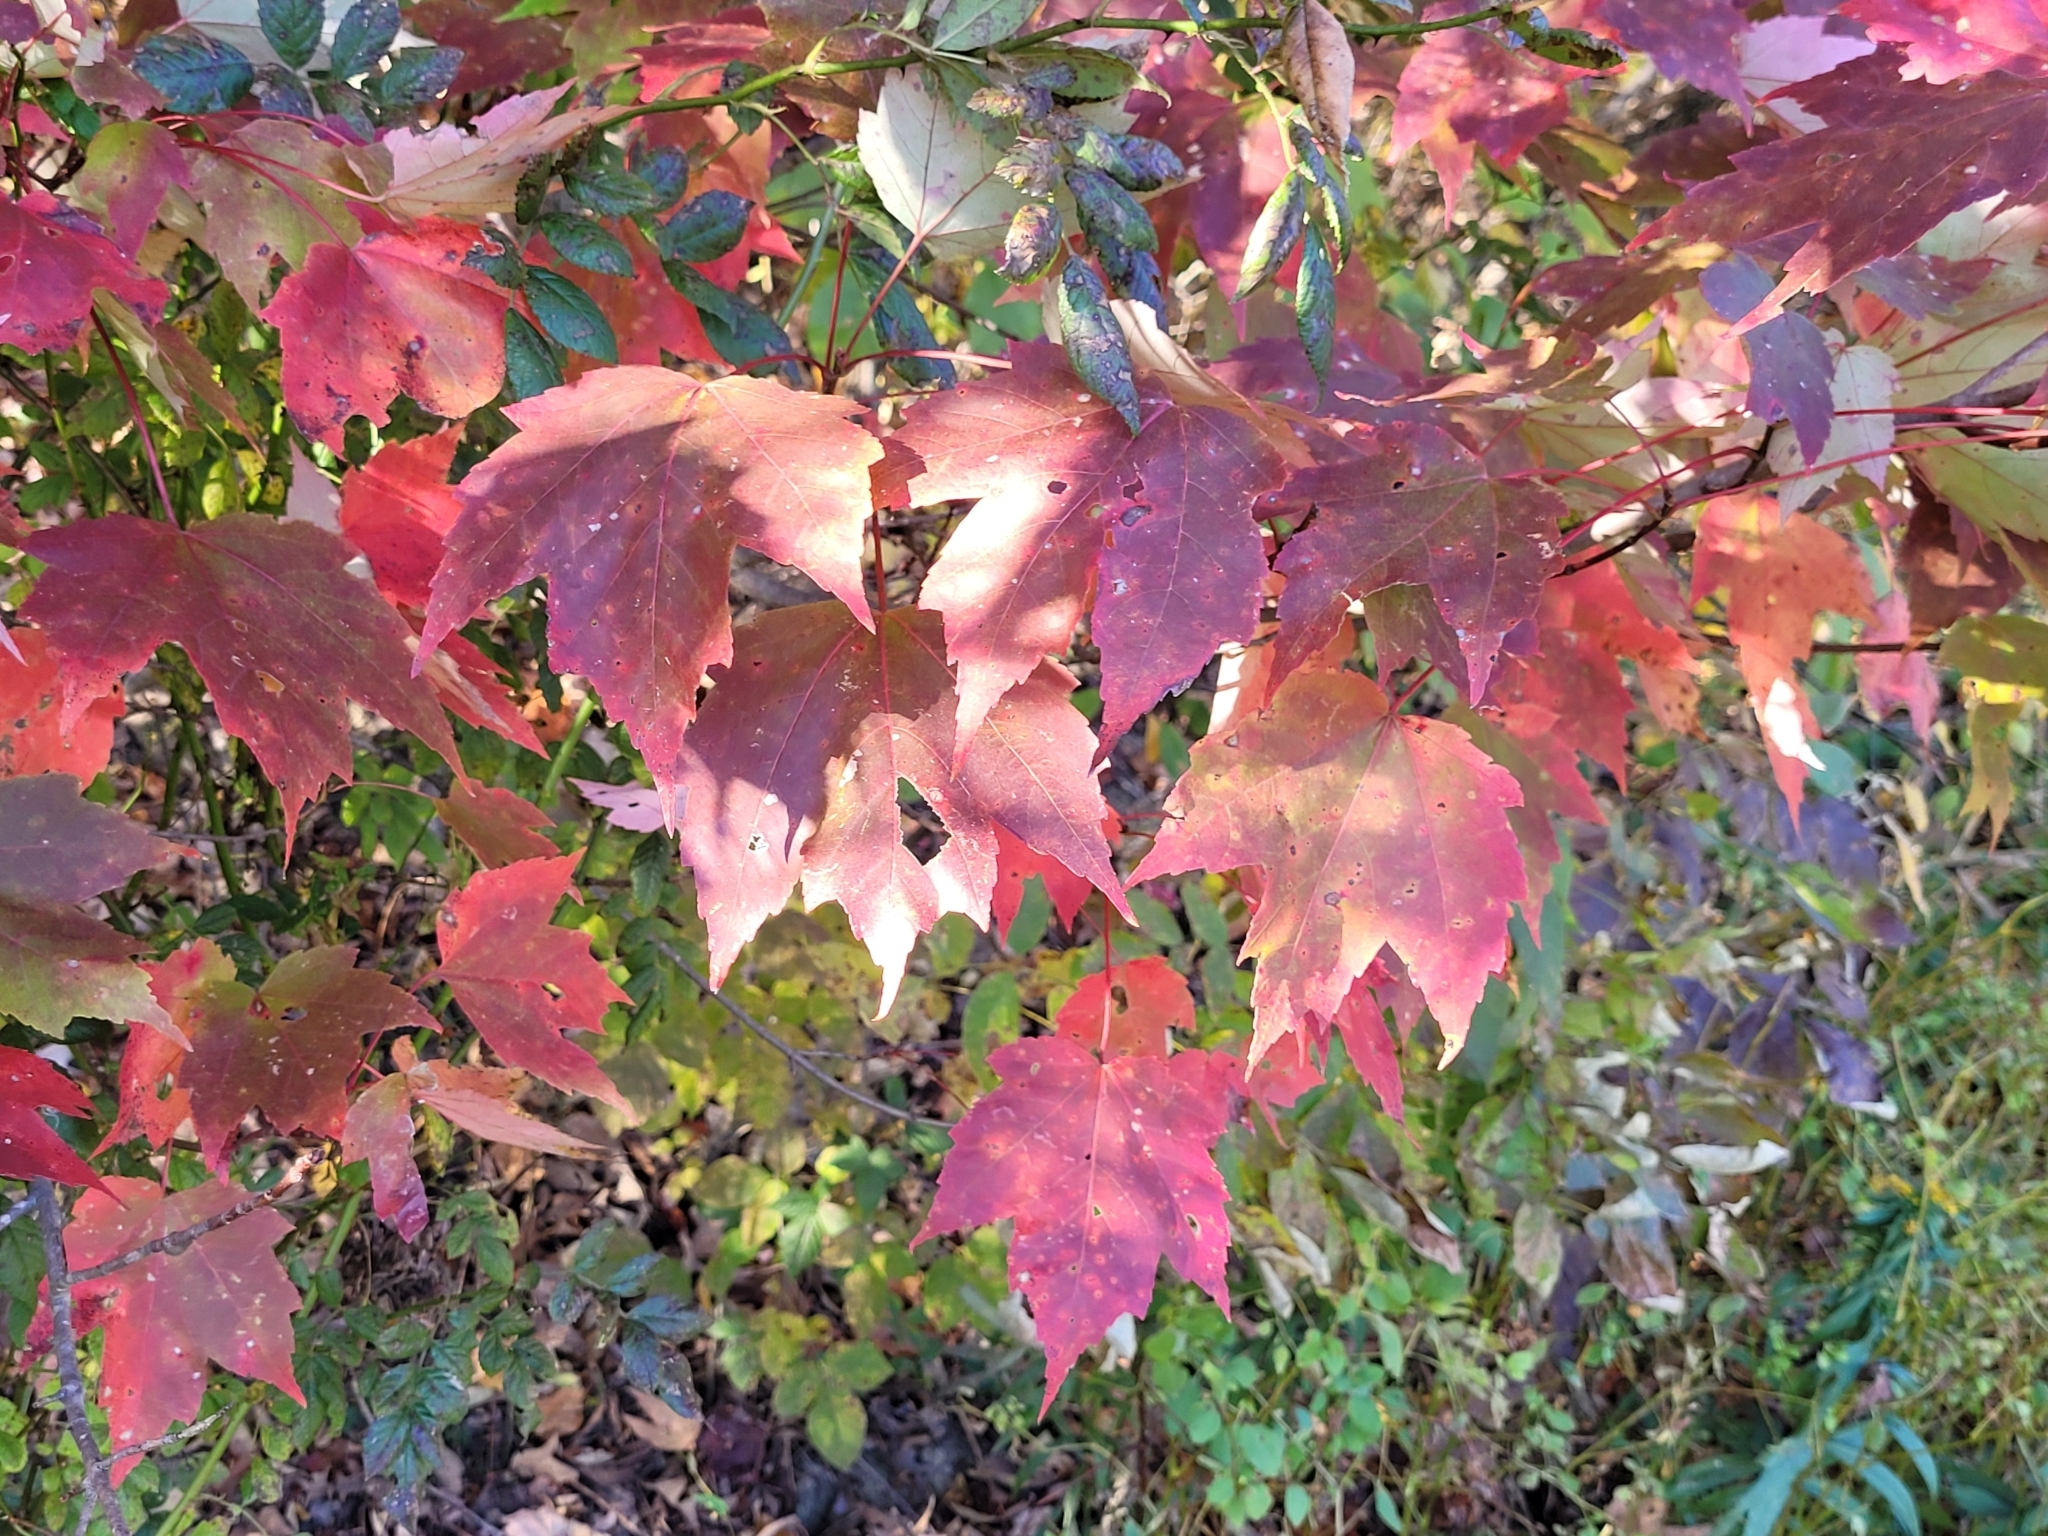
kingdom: Plantae
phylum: Tracheophyta
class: Magnoliopsida
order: Sapindales
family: Sapindaceae
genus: Acer
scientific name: Acer rubrum
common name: Red maple
